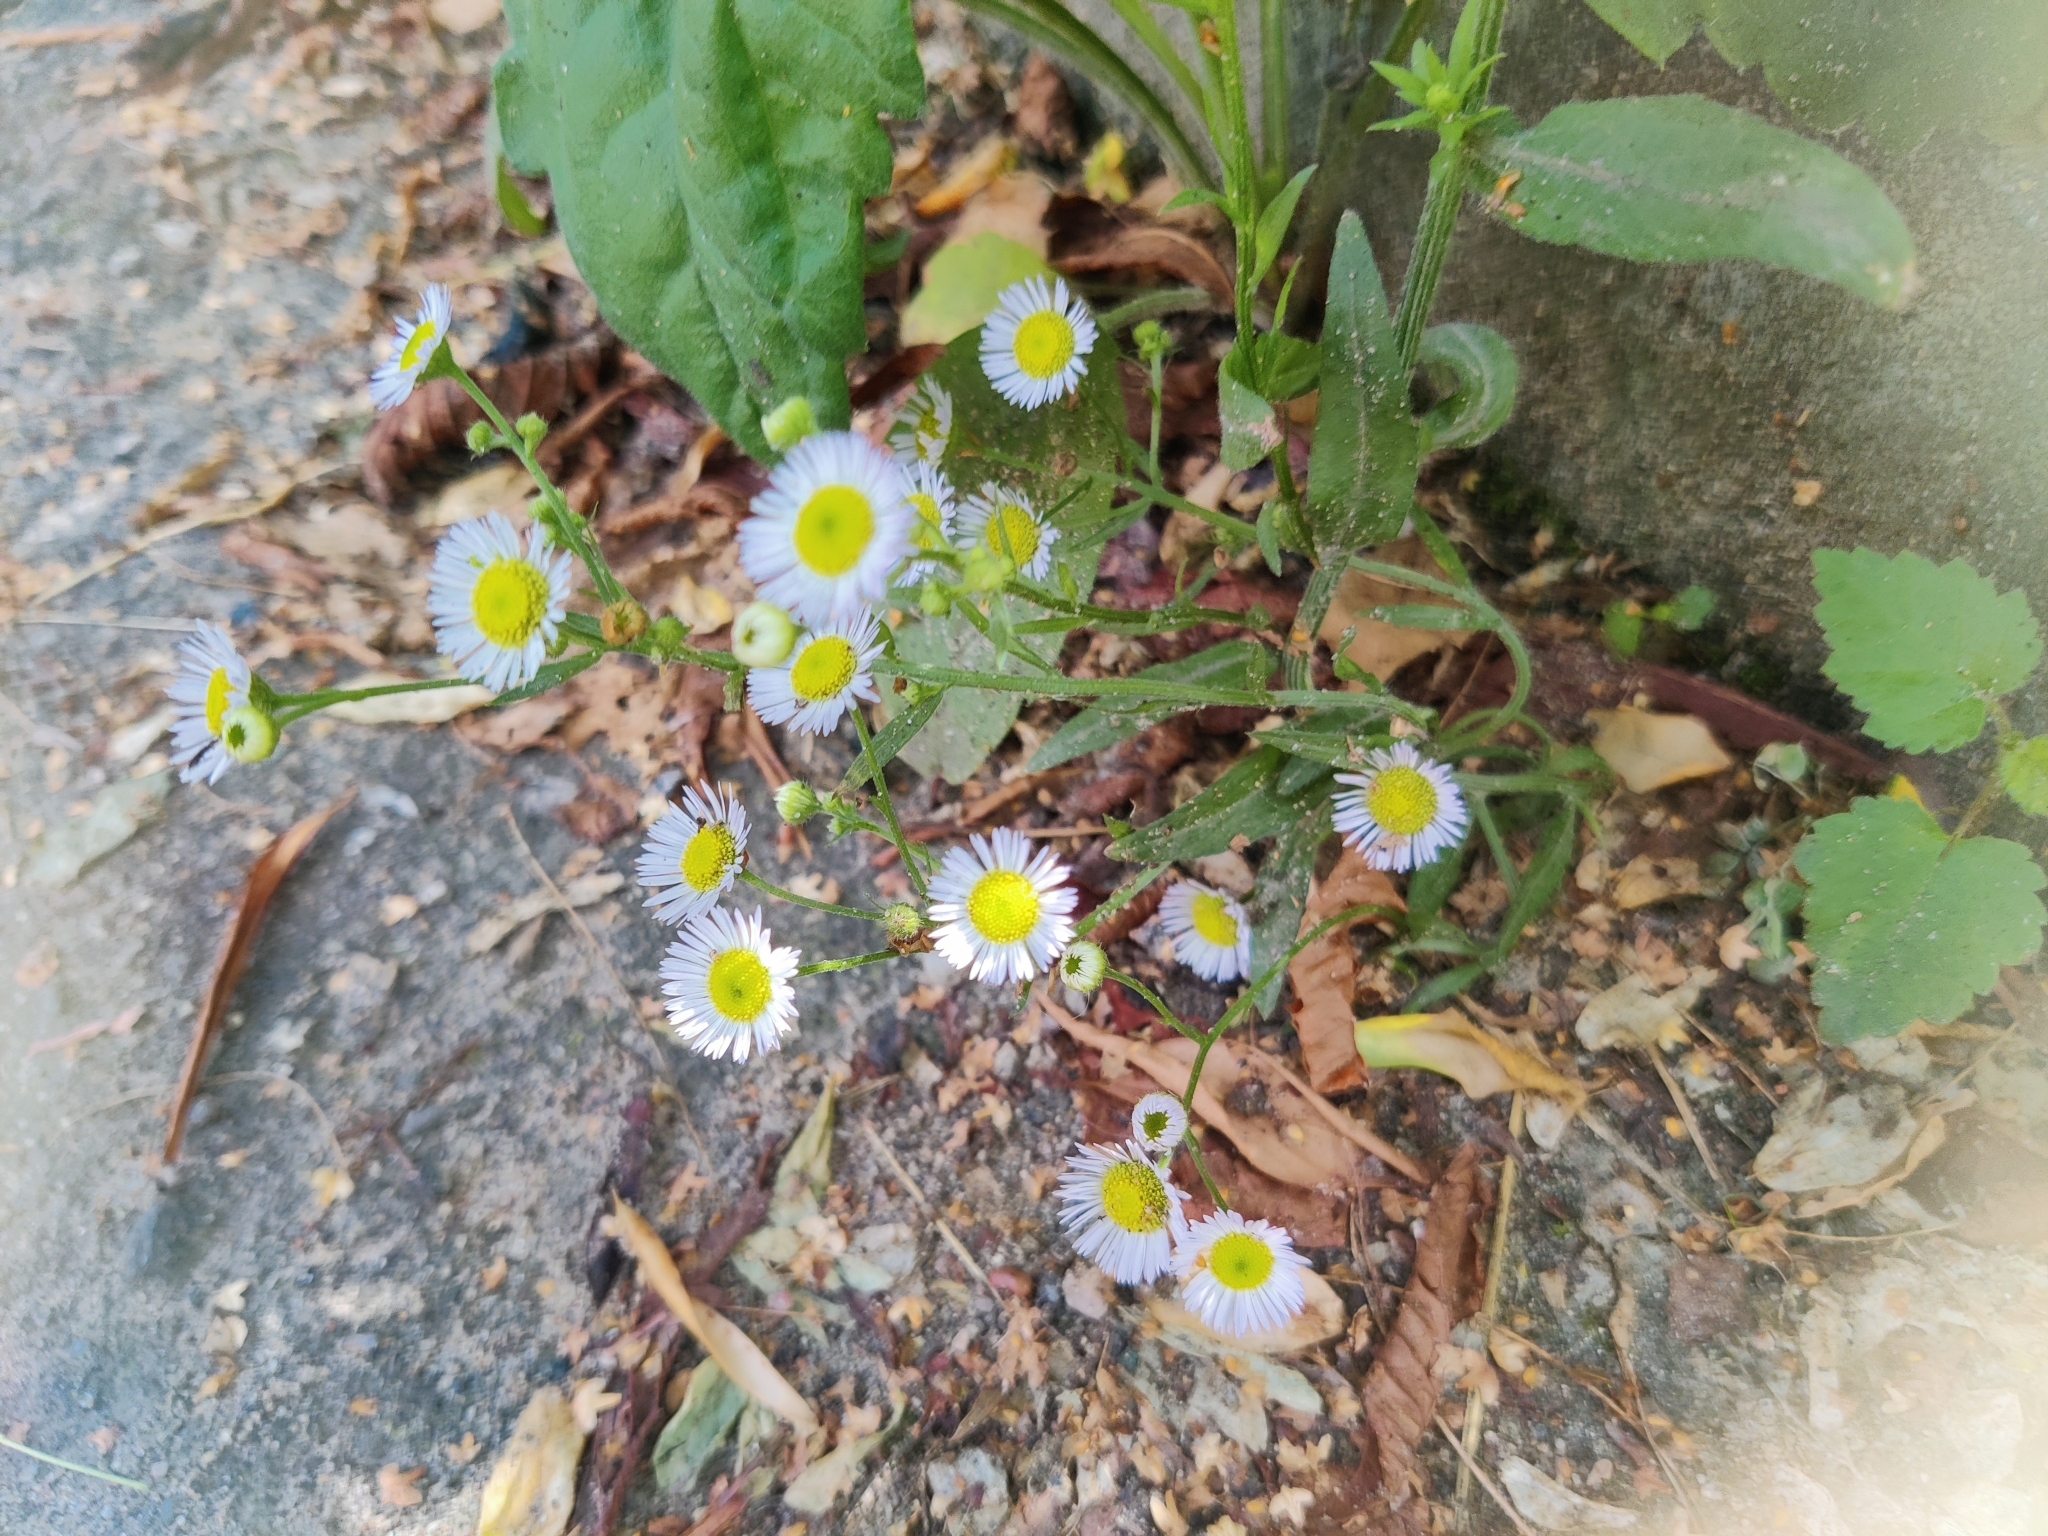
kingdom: Plantae
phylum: Tracheophyta
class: Magnoliopsida
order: Asterales
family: Asteraceae
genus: Erigeron
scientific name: Erigeron annuus
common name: Tall fleabane
